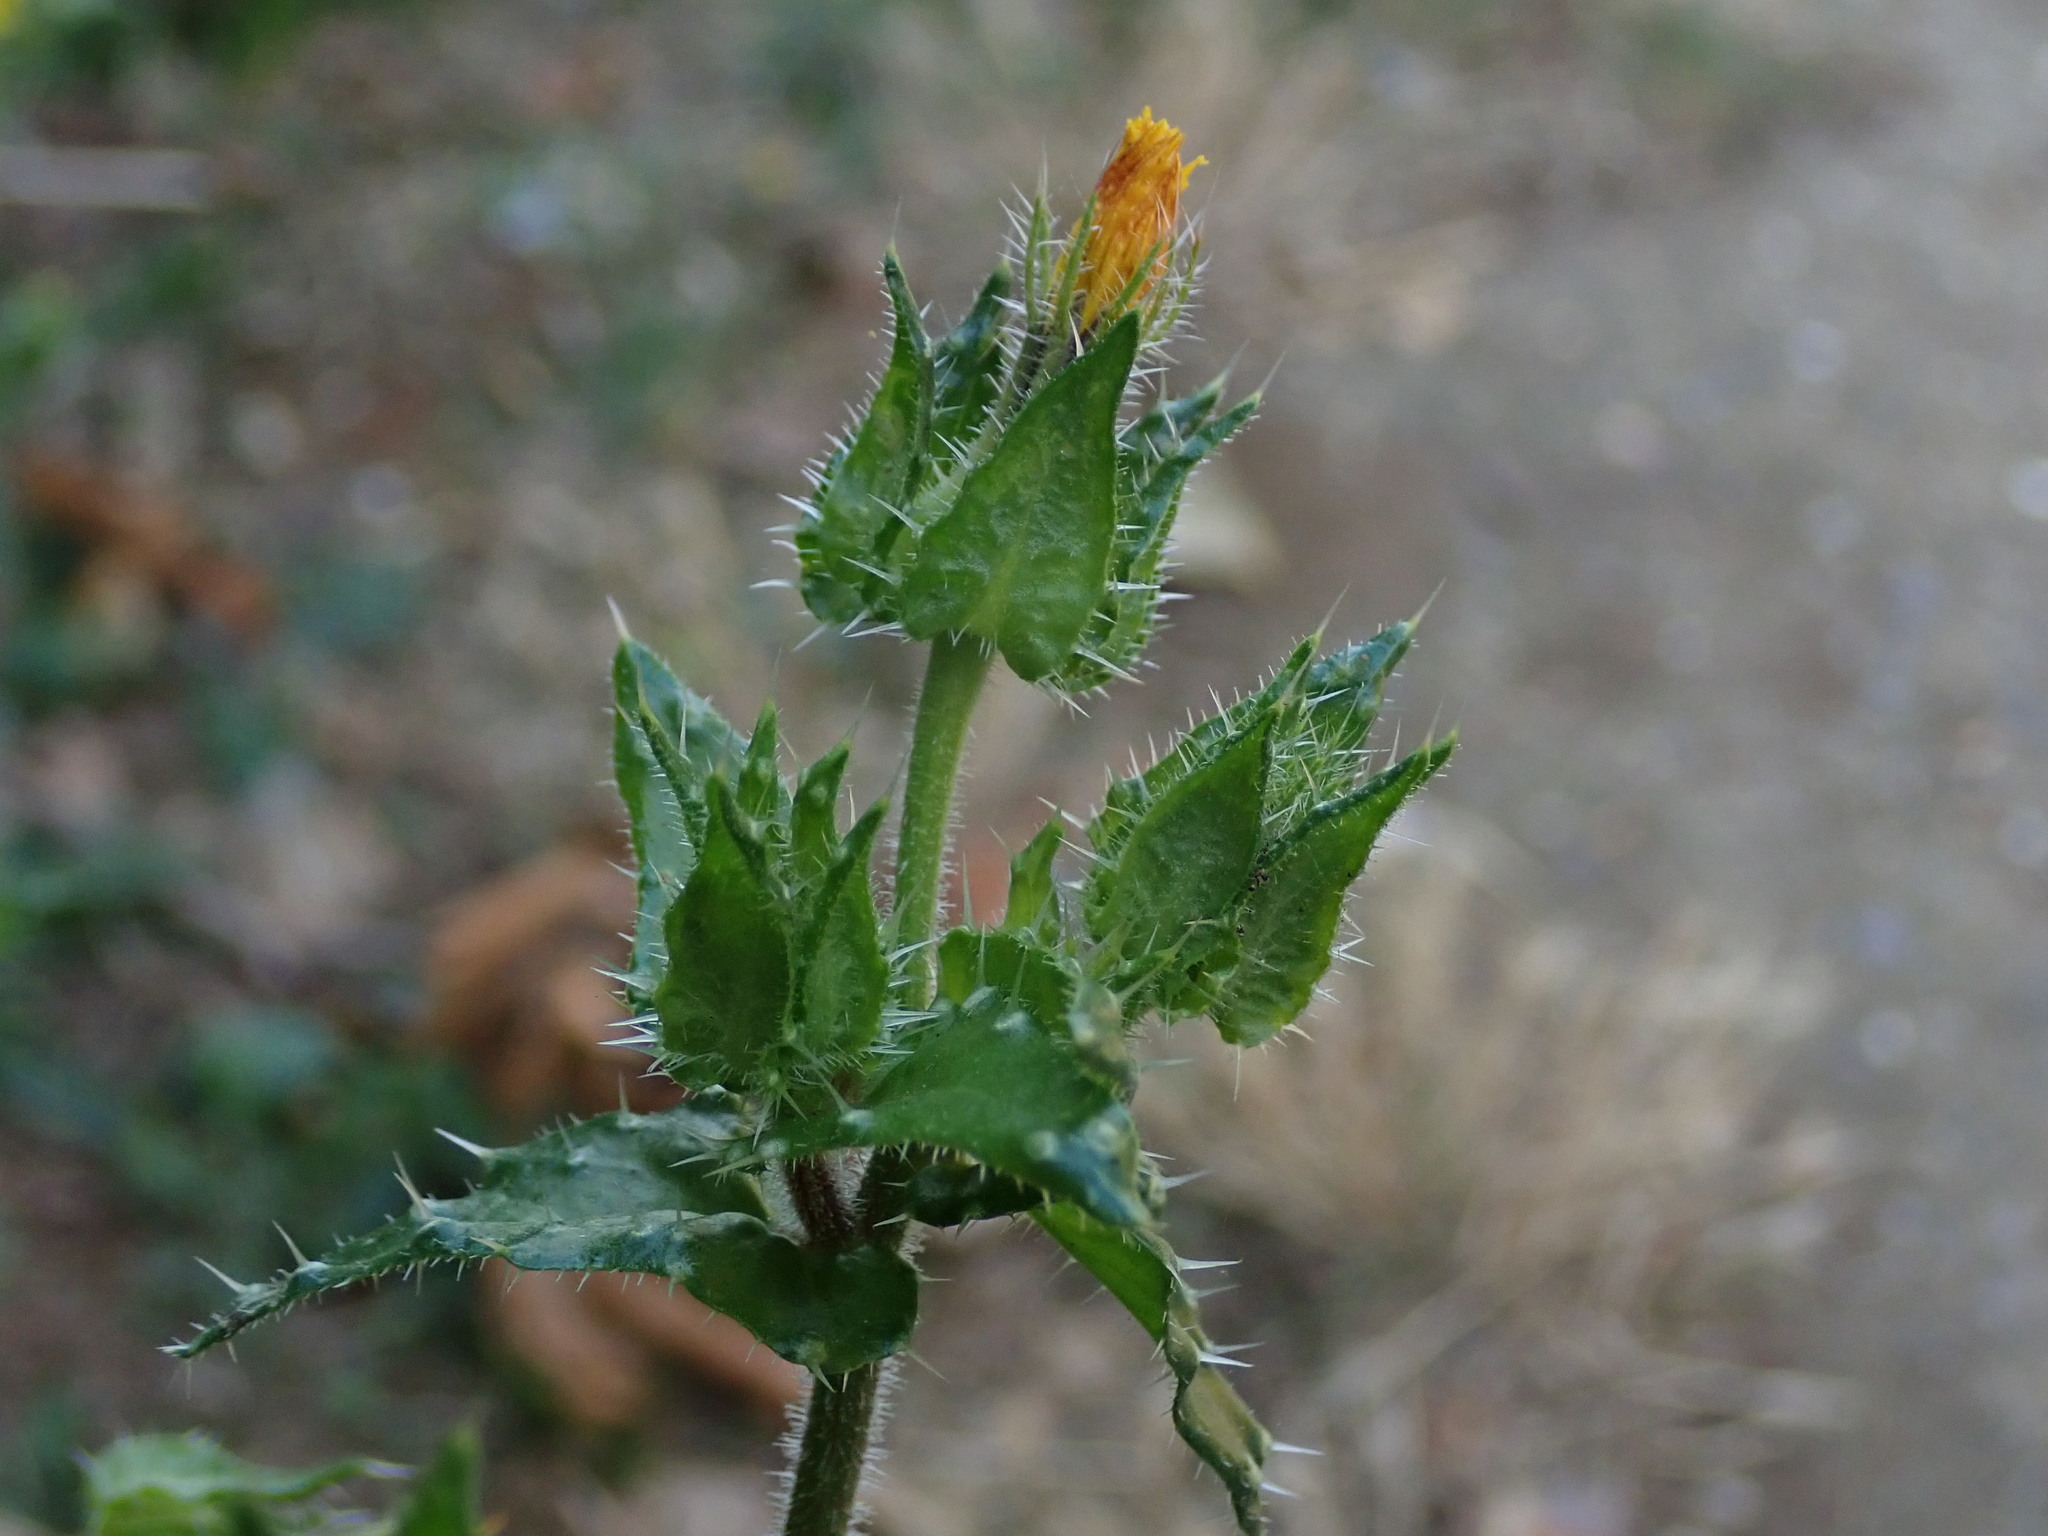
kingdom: Plantae
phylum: Tracheophyta
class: Magnoliopsida
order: Asterales
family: Asteraceae
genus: Helminthotheca
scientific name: Helminthotheca echioides
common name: Ox-tongue
